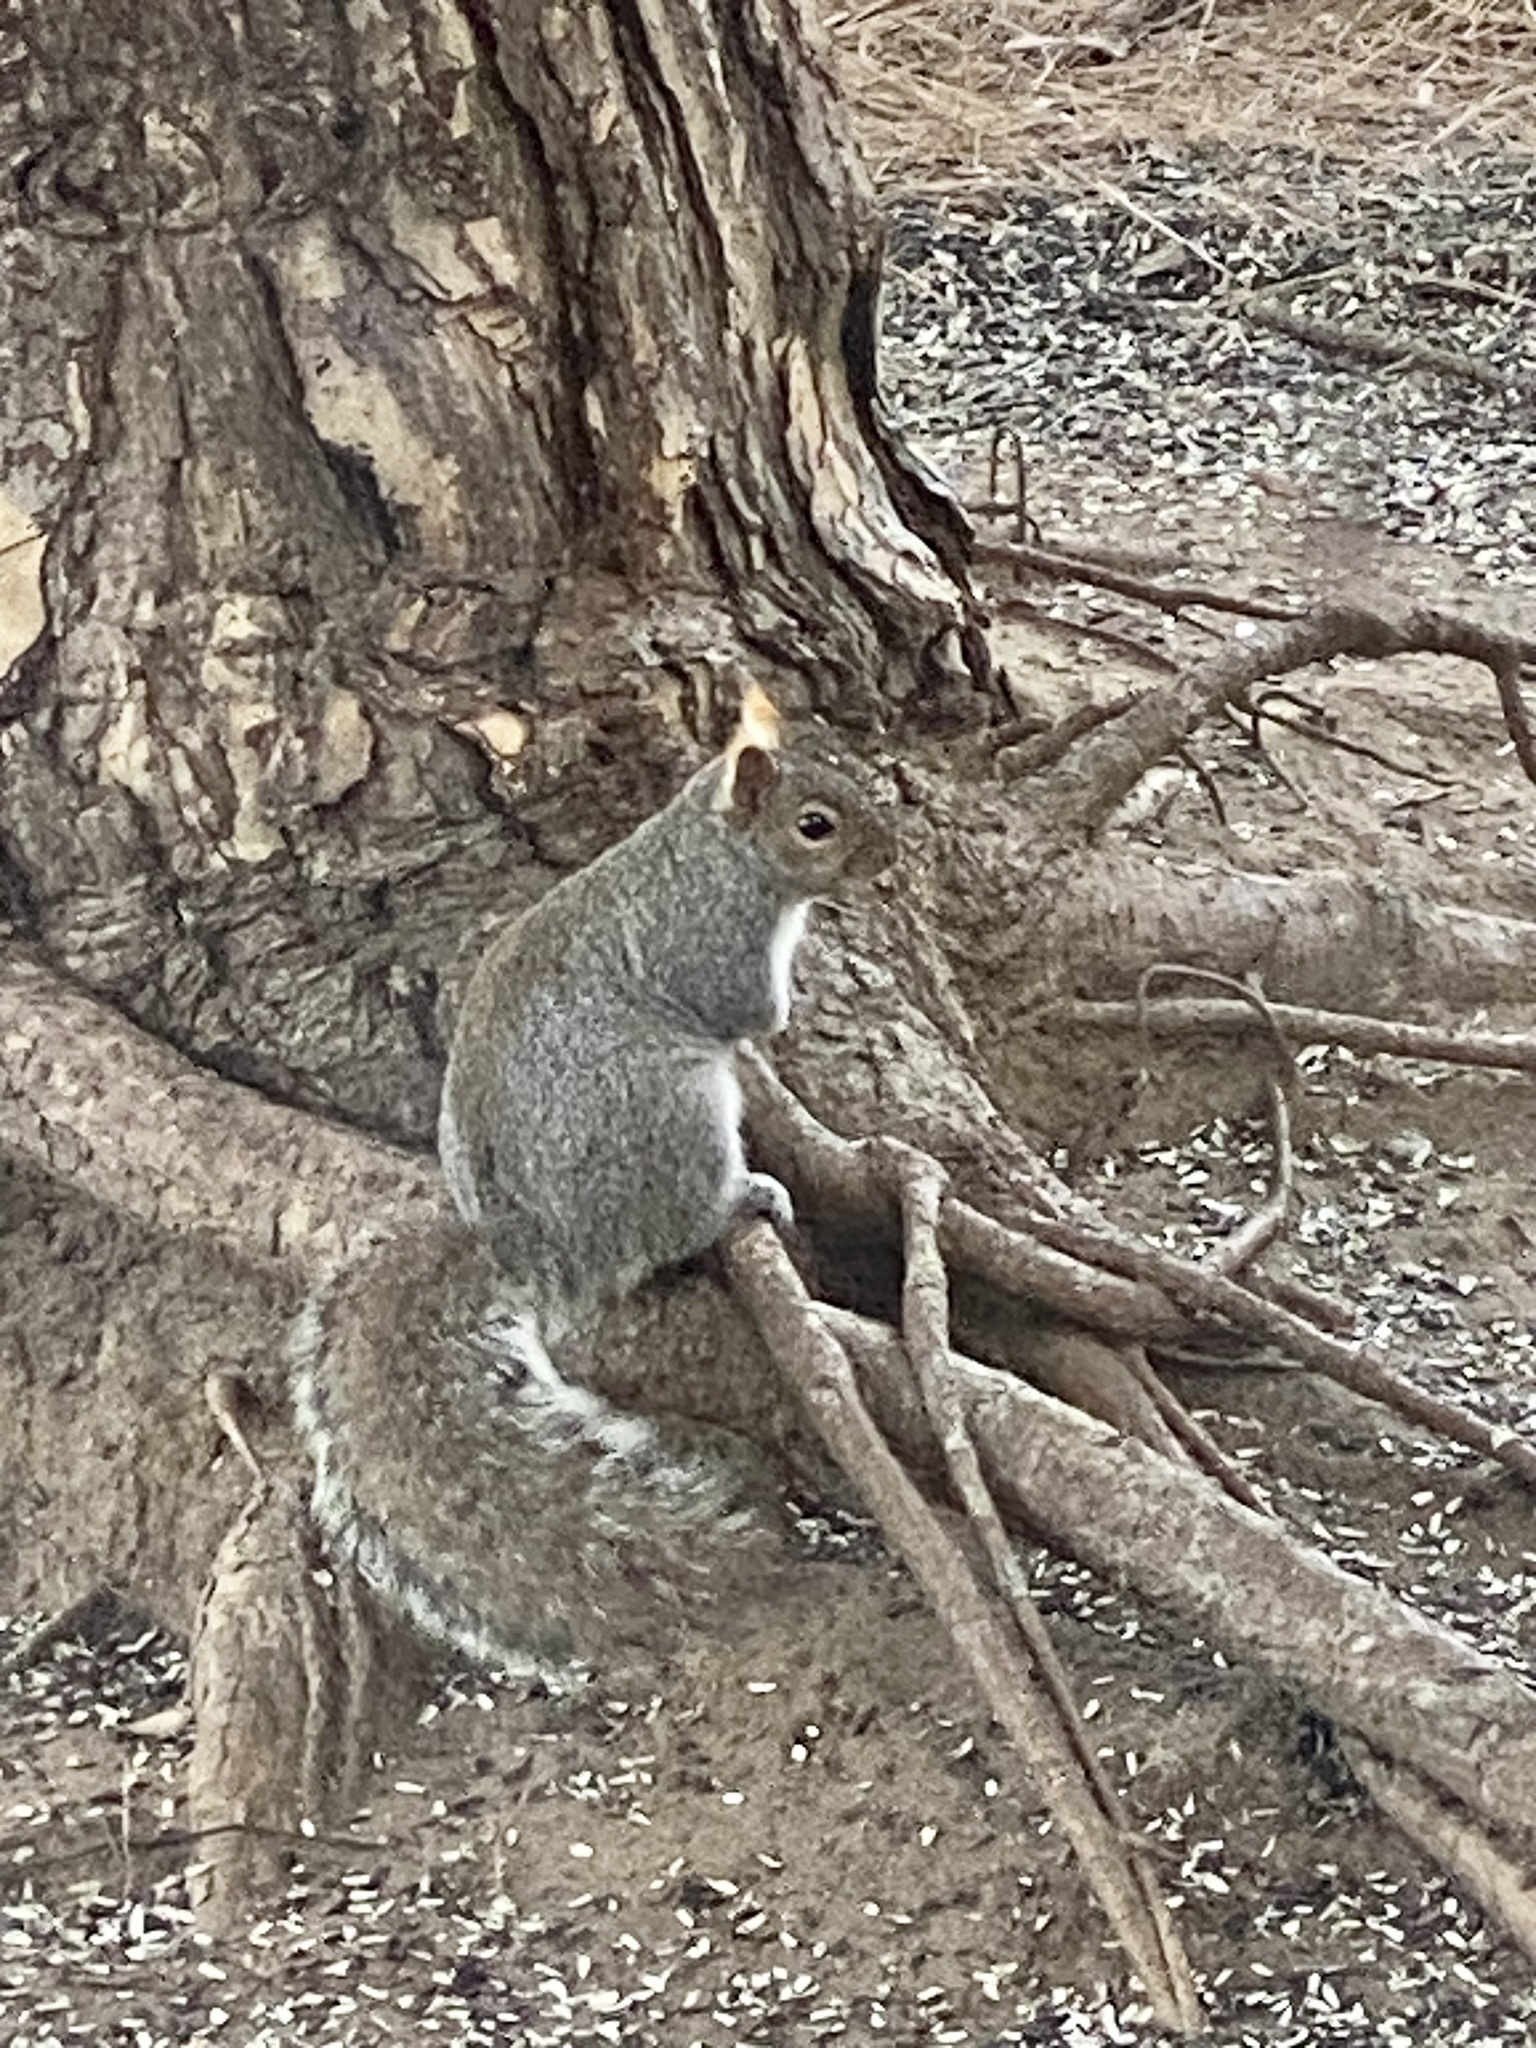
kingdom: Animalia
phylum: Chordata
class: Mammalia
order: Rodentia
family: Sciuridae
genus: Sciurus
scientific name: Sciurus carolinensis
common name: Eastern gray squirrel
